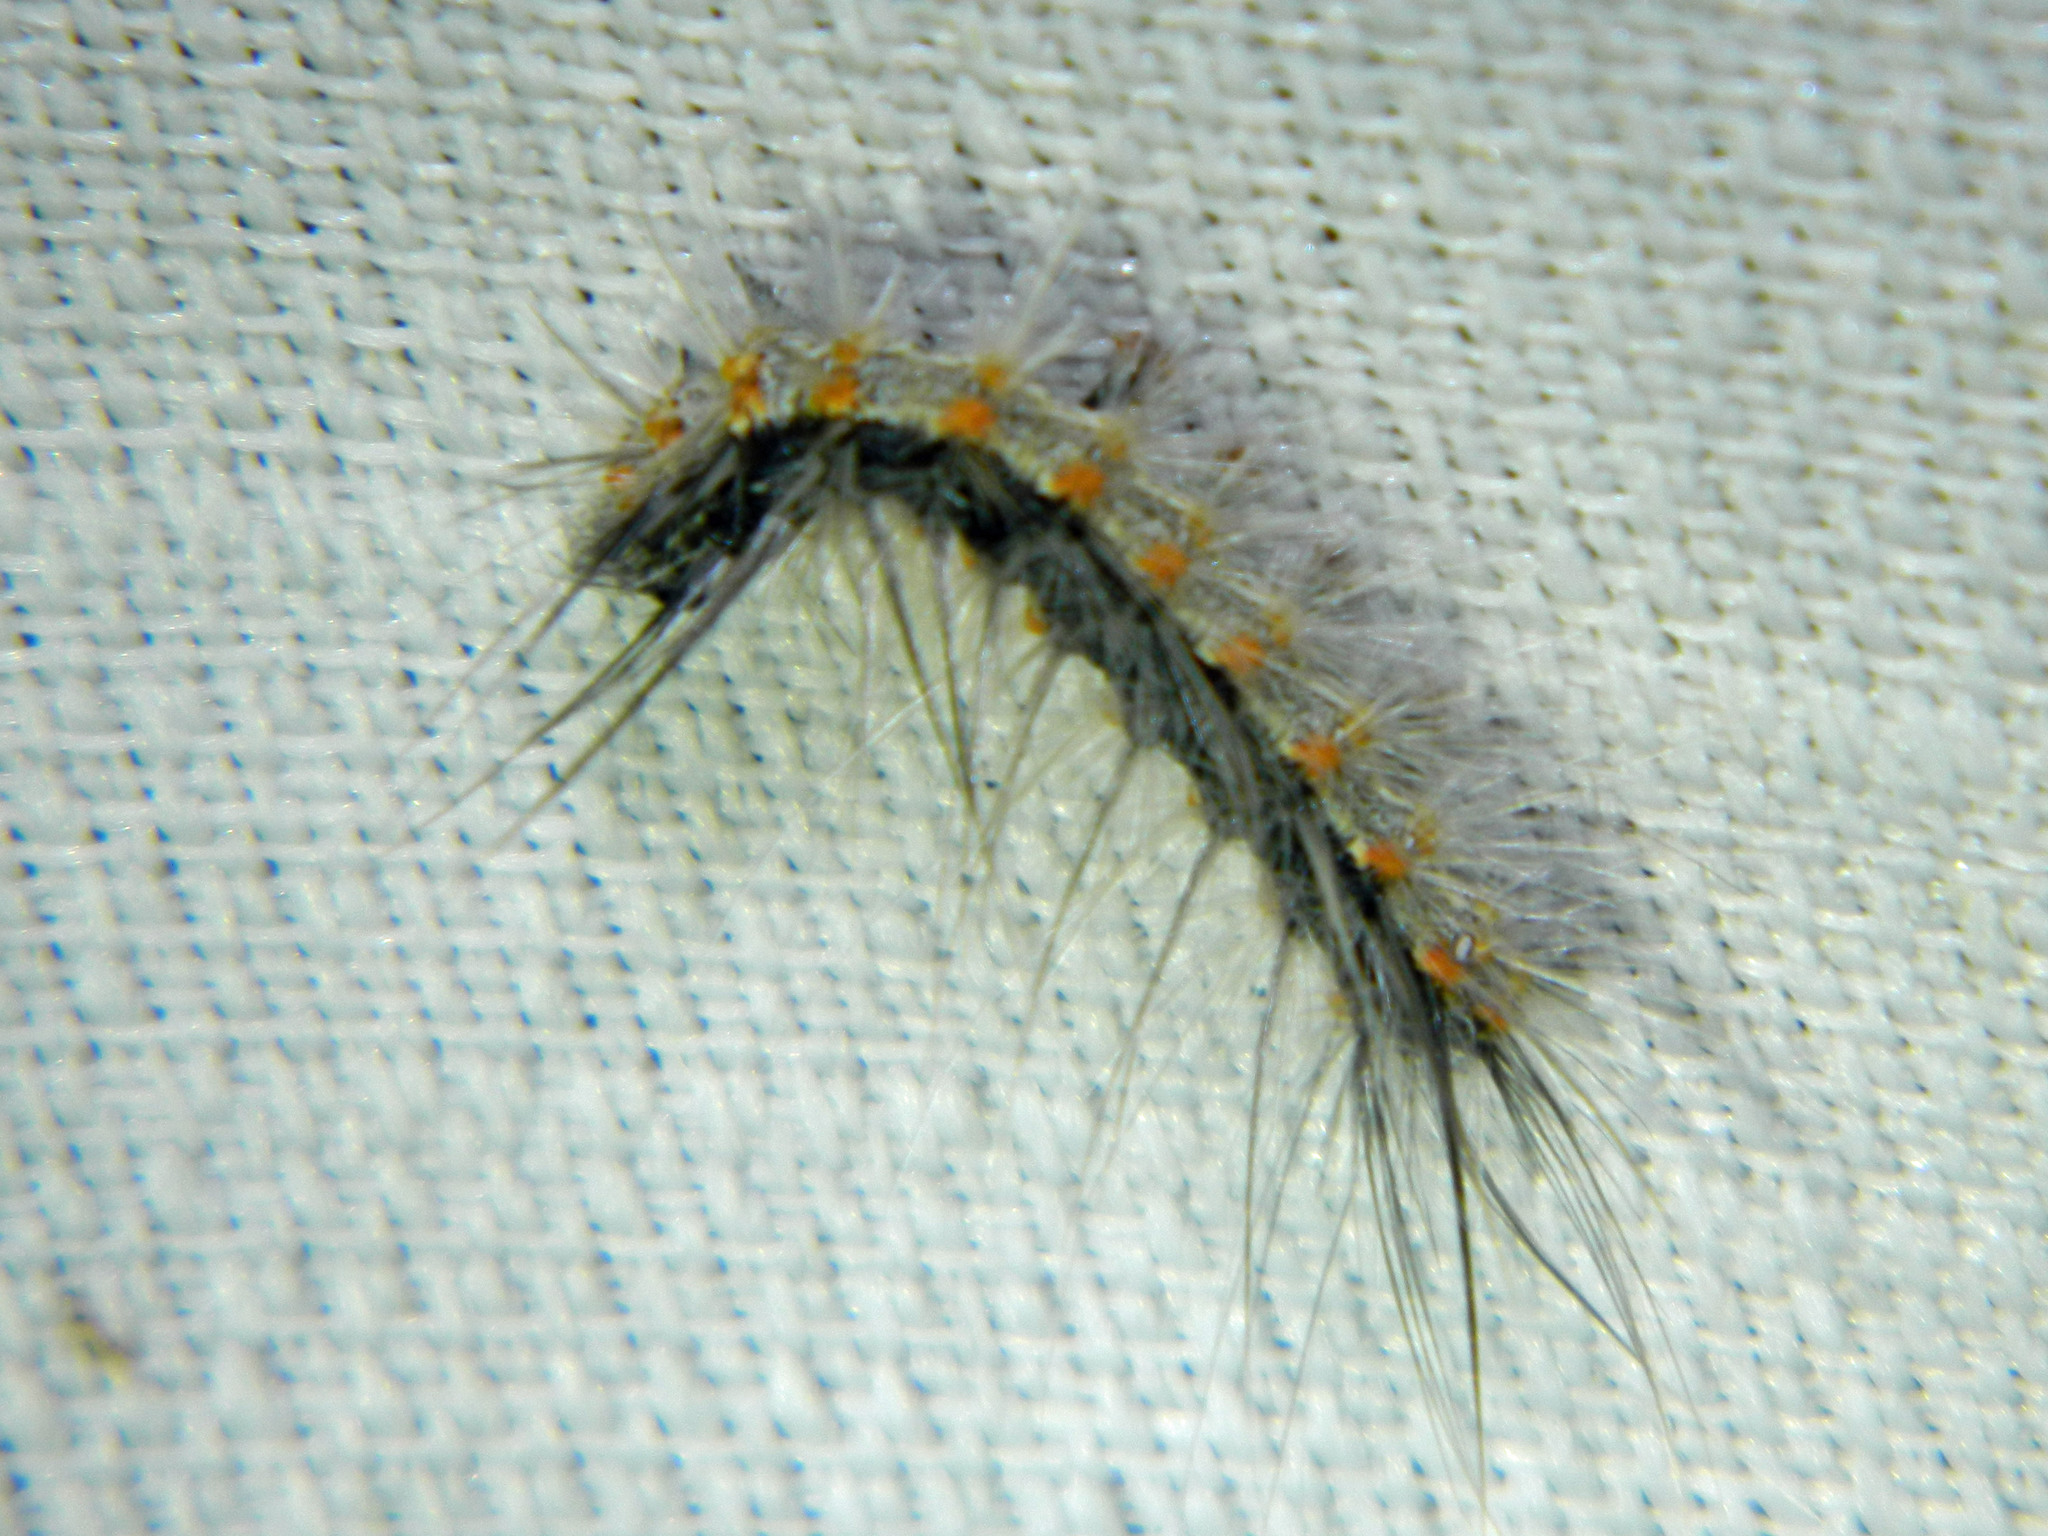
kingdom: Animalia
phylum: Arthropoda
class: Insecta
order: Lepidoptera
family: Erebidae
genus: Hyphantria
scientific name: Hyphantria cunea
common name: American white moth
